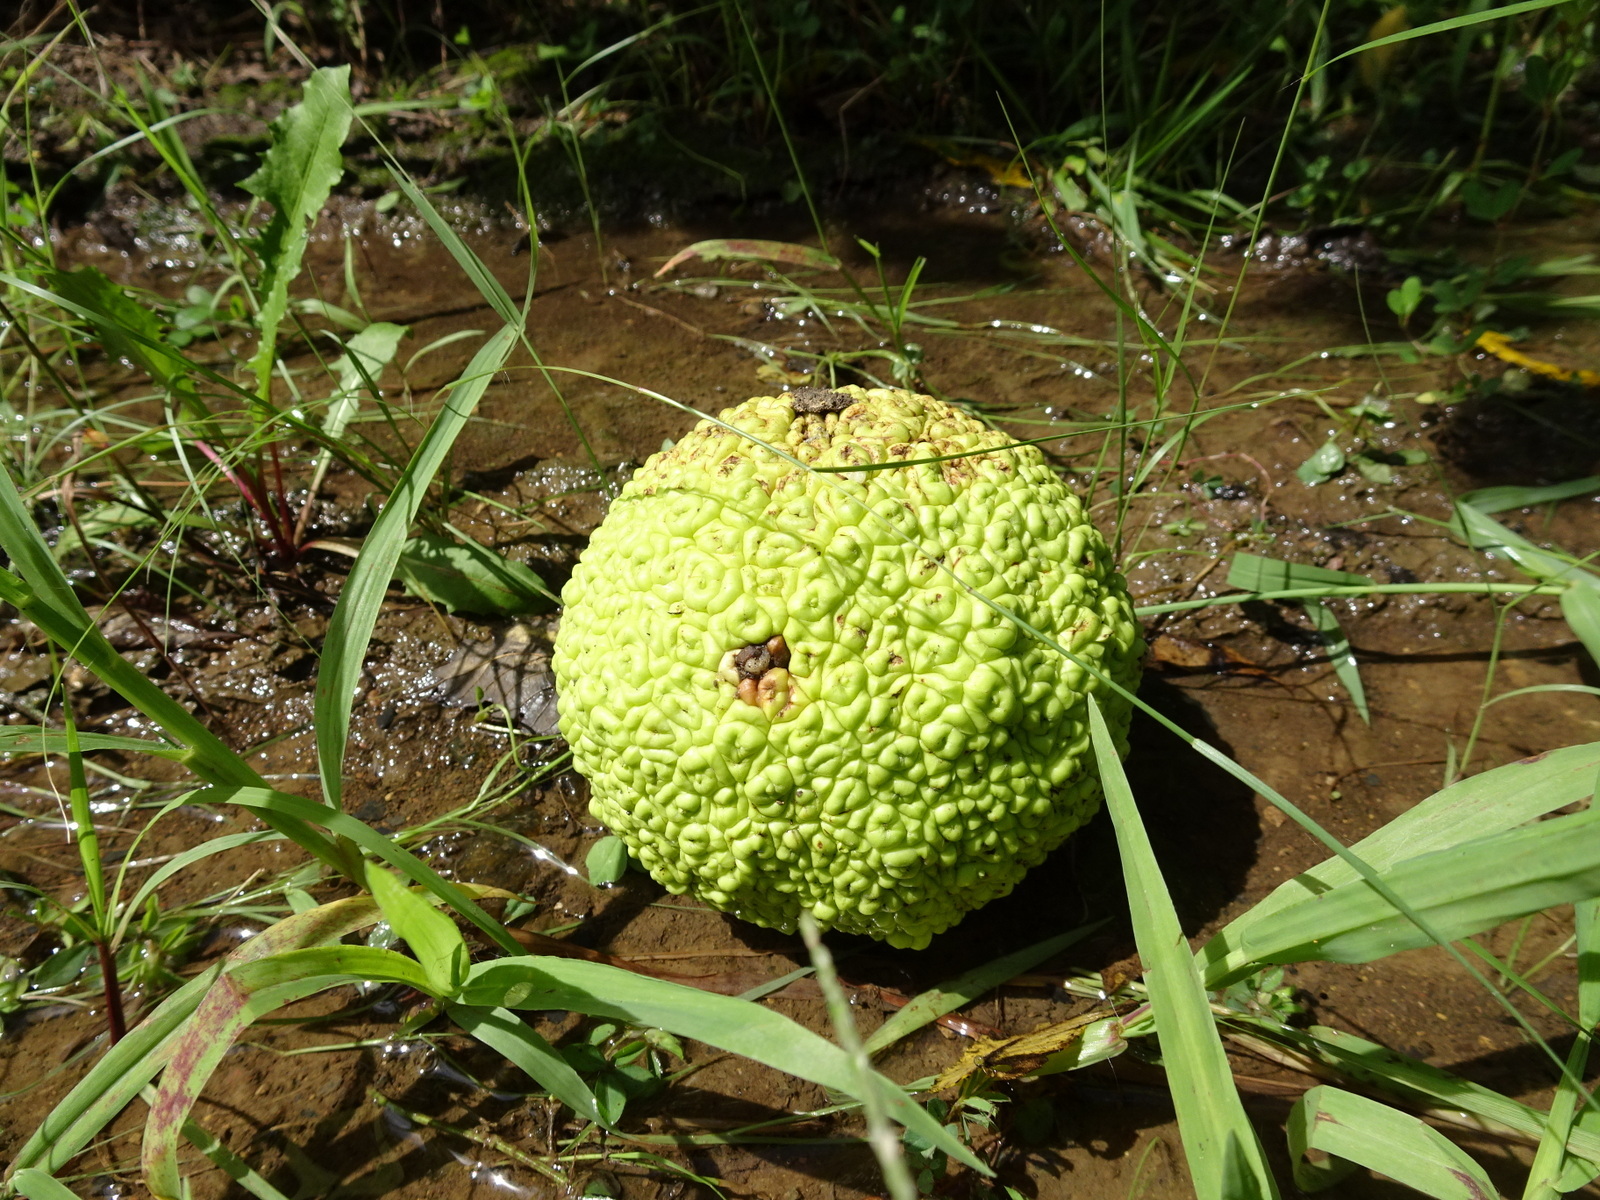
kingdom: Plantae
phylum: Tracheophyta
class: Magnoliopsida
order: Rosales
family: Moraceae
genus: Maclura
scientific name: Maclura pomifera
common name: Osage-orange
